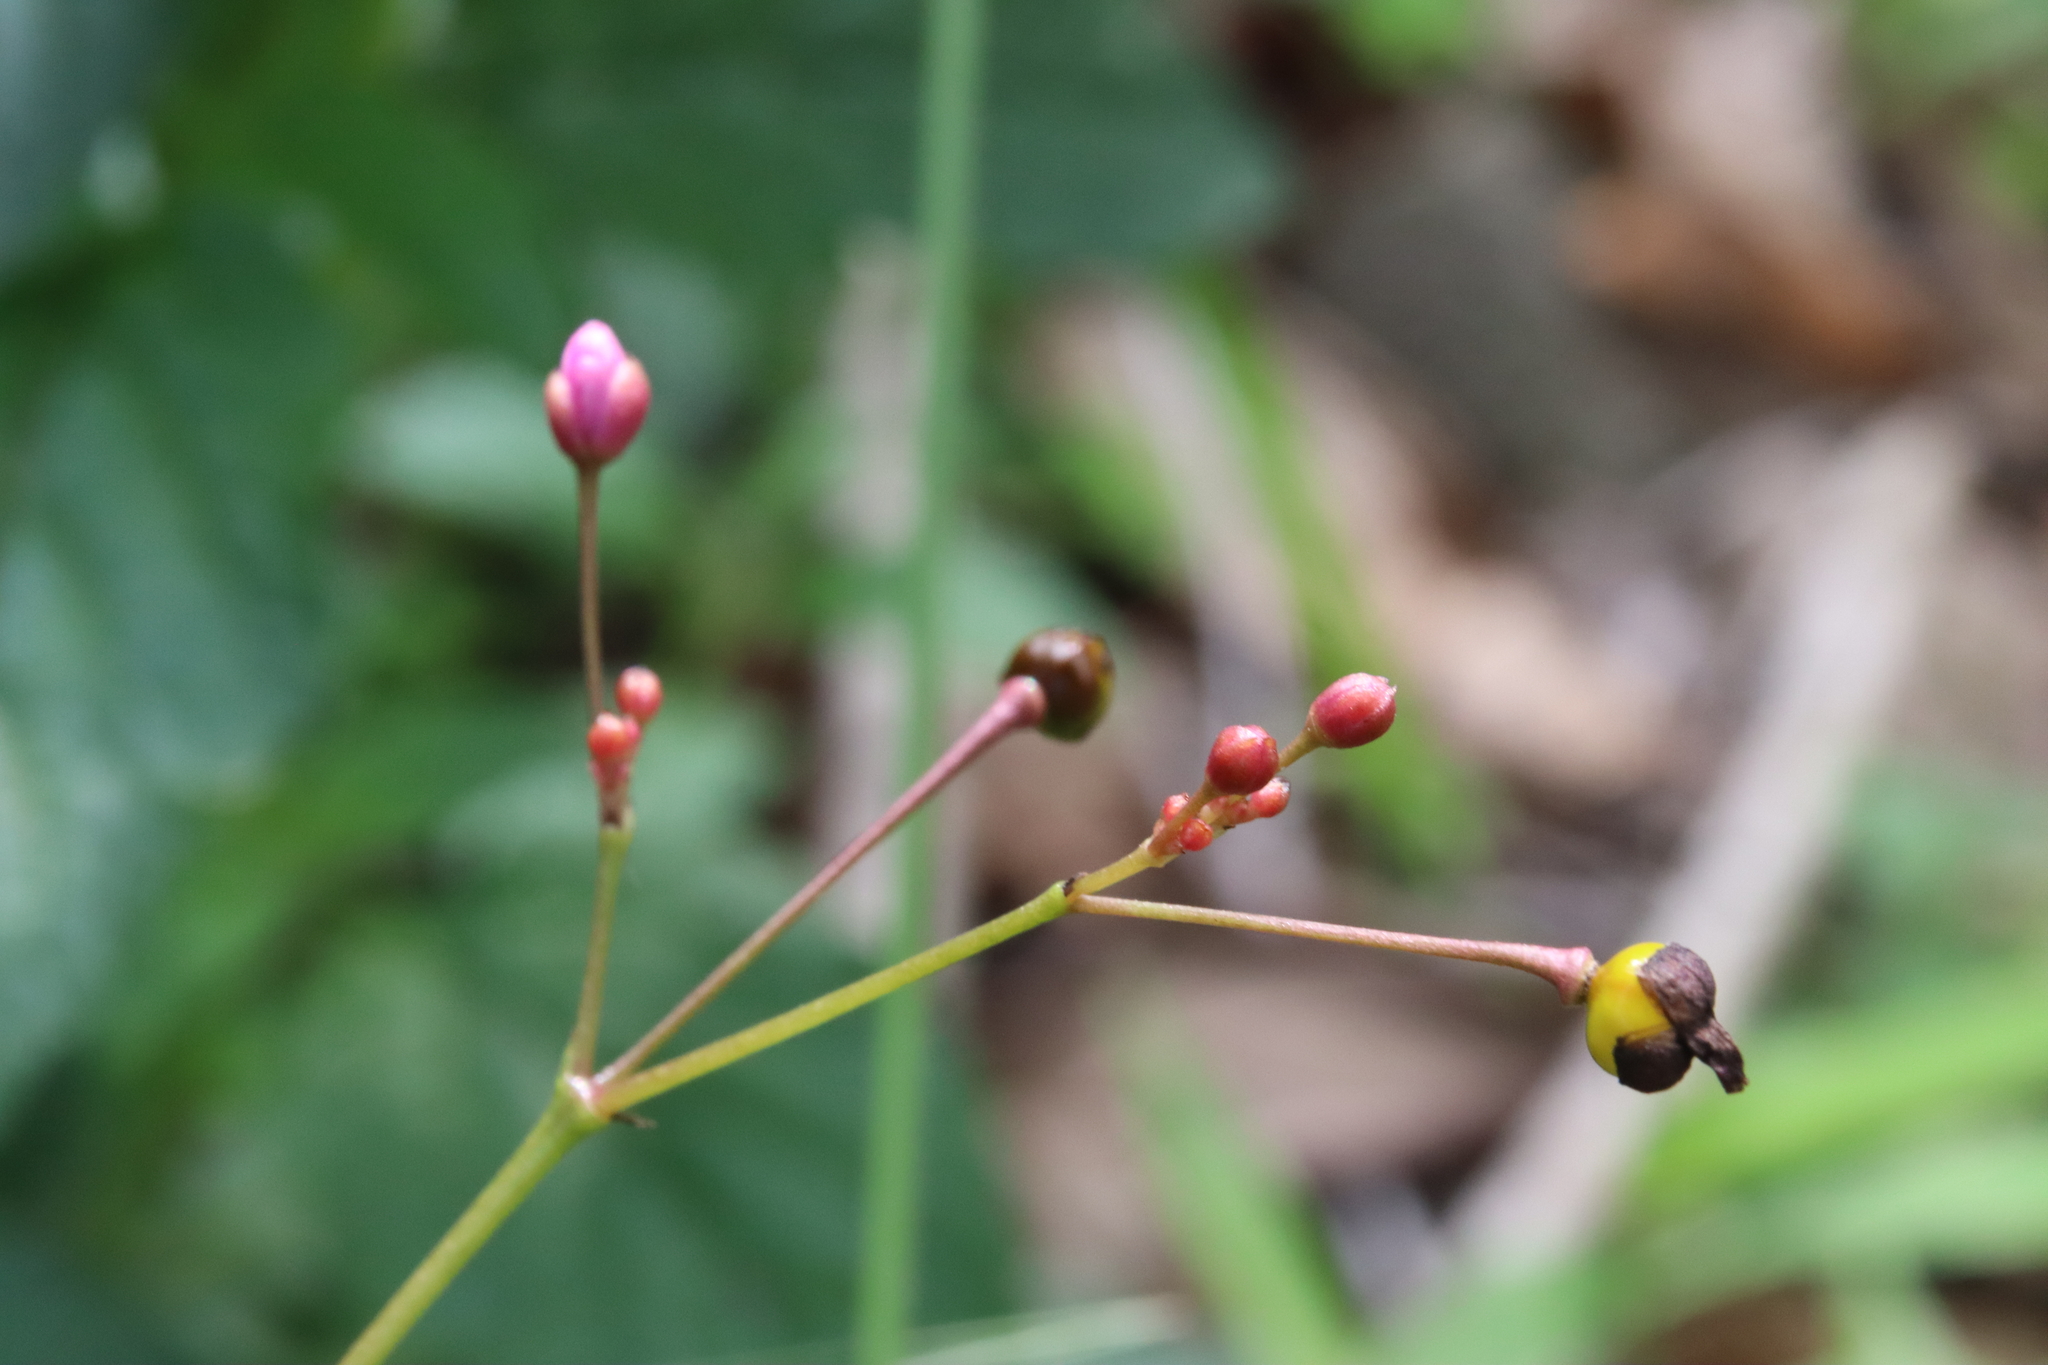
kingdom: Plantae
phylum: Tracheophyta
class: Magnoliopsida
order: Caryophyllales
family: Talinaceae
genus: Talinum
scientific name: Talinum paniculatum
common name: Jewels of opar
